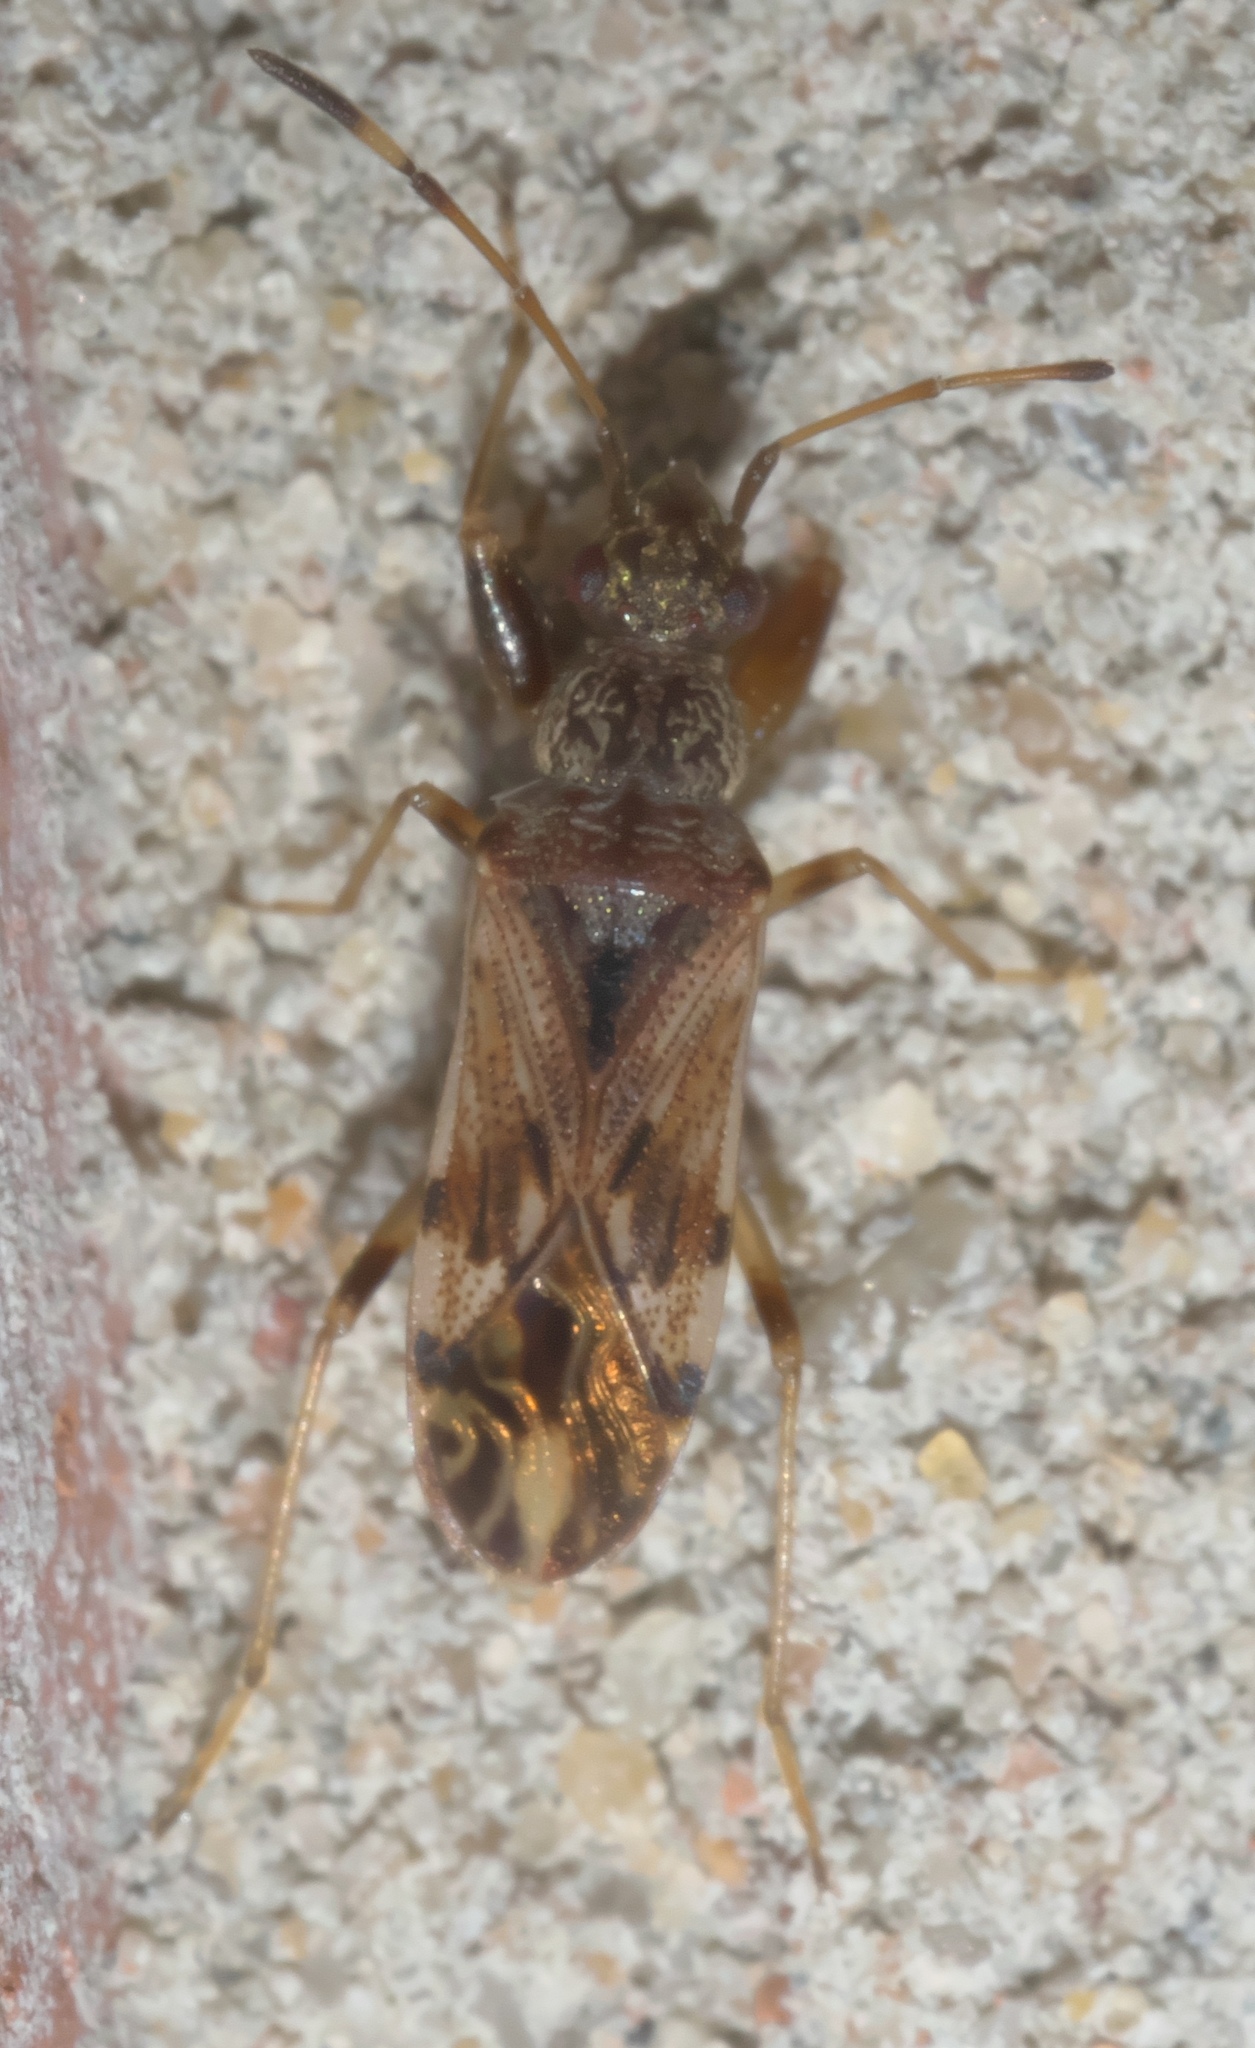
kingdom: Animalia
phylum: Arthropoda
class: Insecta
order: Hemiptera
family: Rhyparochromidae
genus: Neopamera
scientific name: Neopamera albocincta
